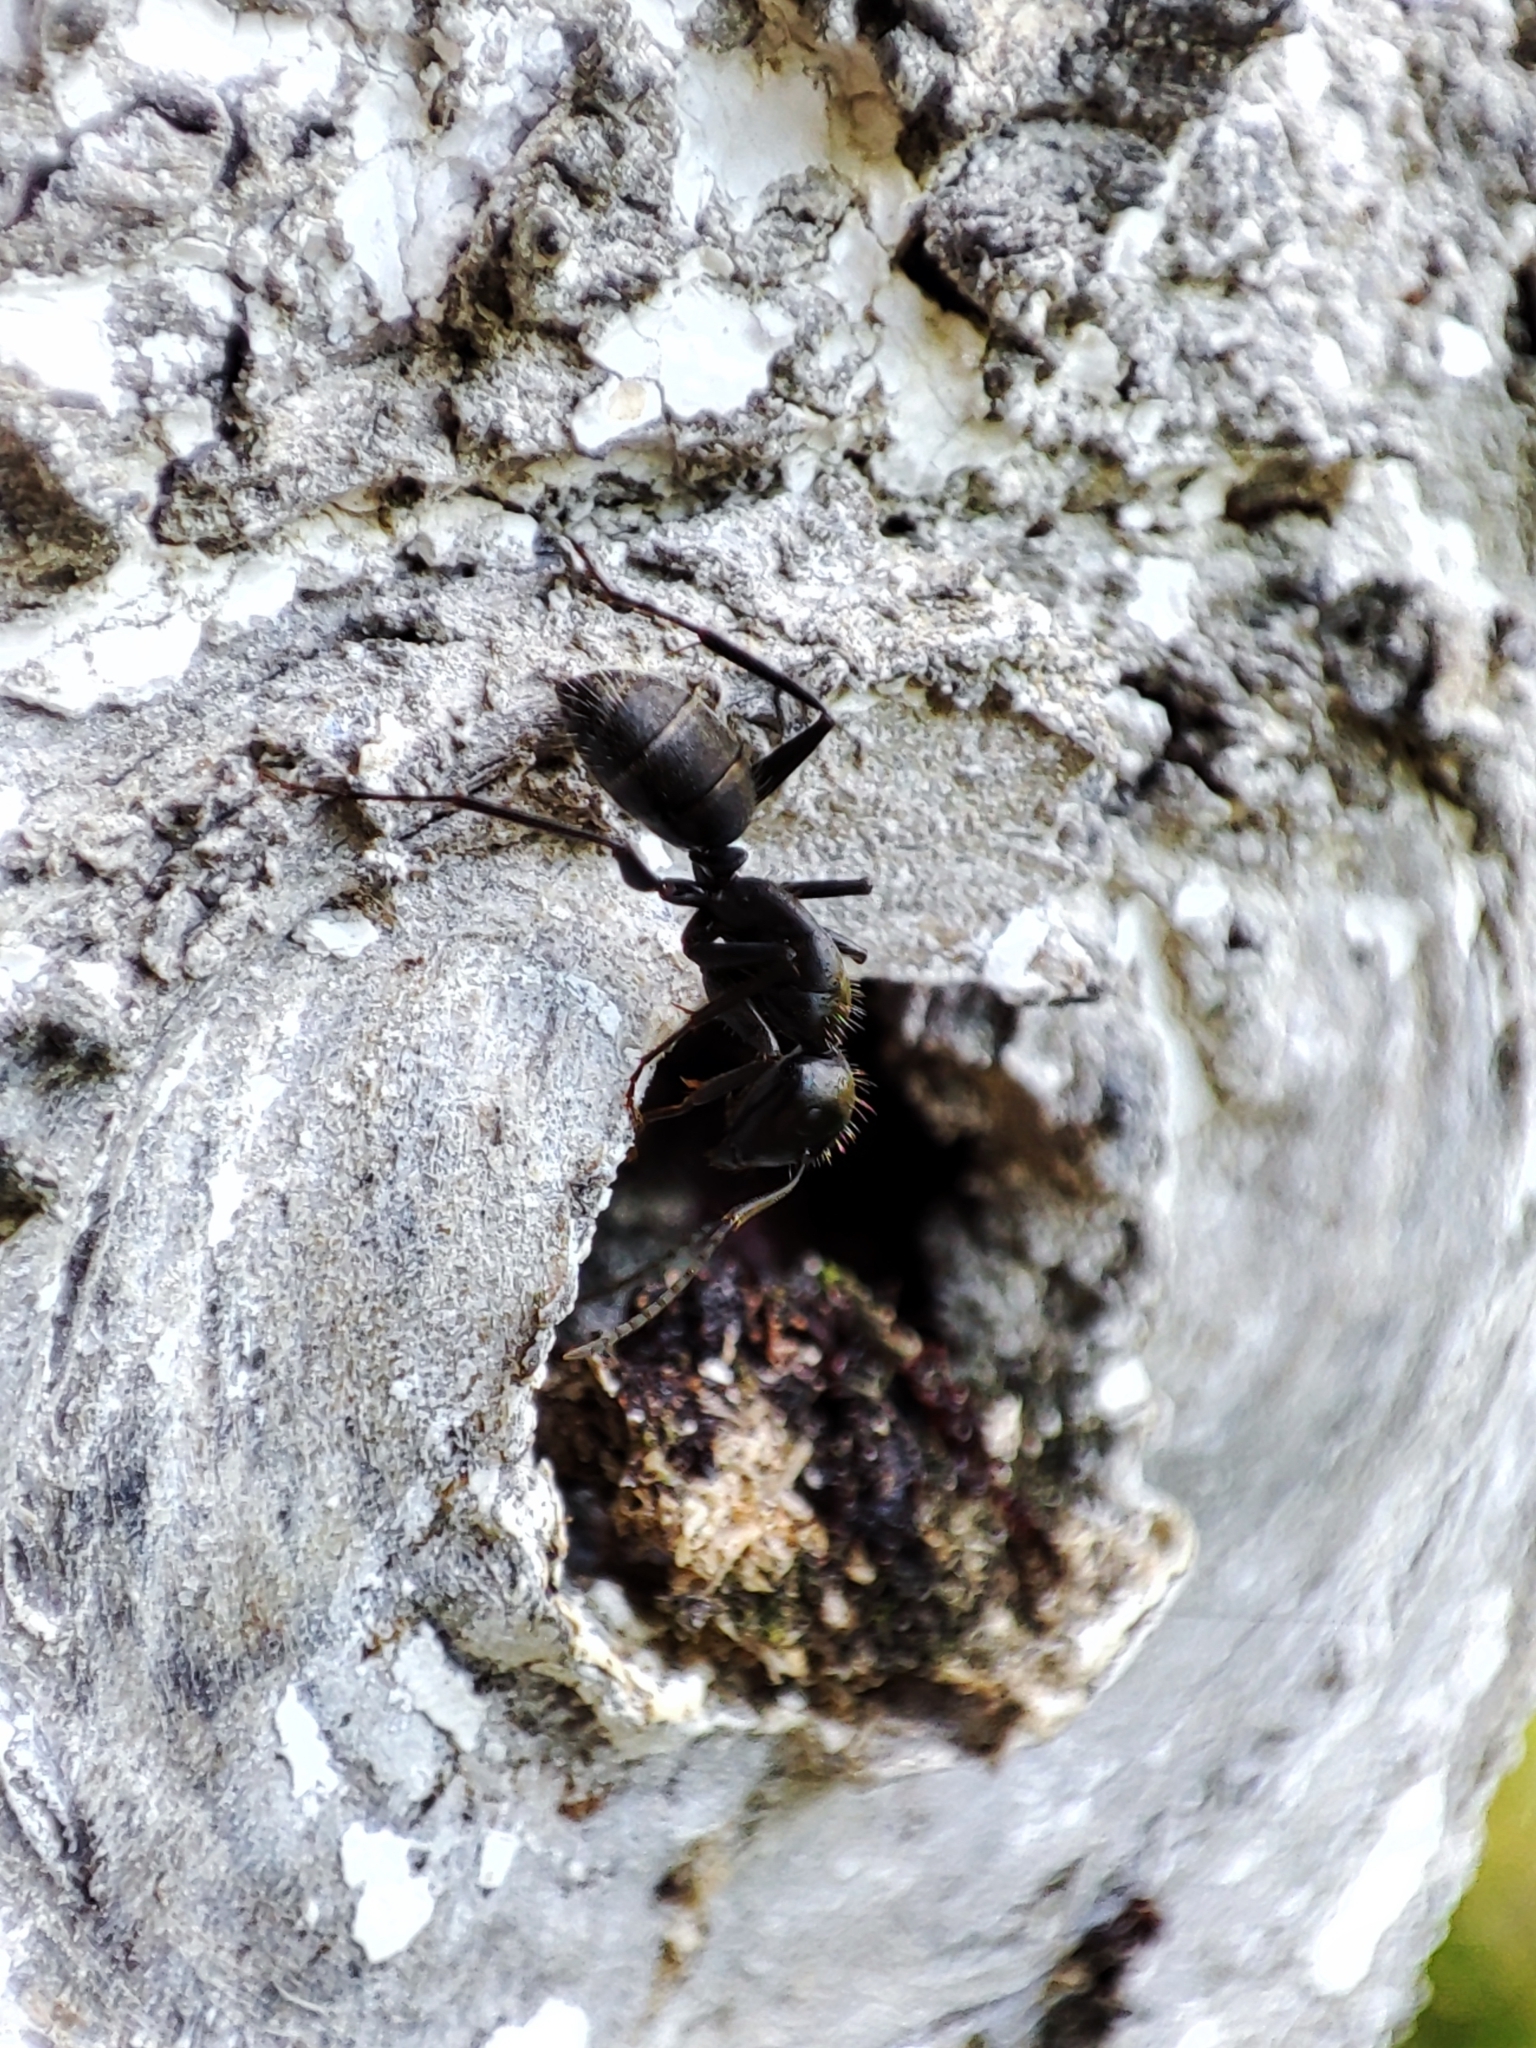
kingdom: Animalia
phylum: Arthropoda
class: Insecta
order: Hymenoptera
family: Formicidae
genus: Camponotus
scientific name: Camponotus vagus
